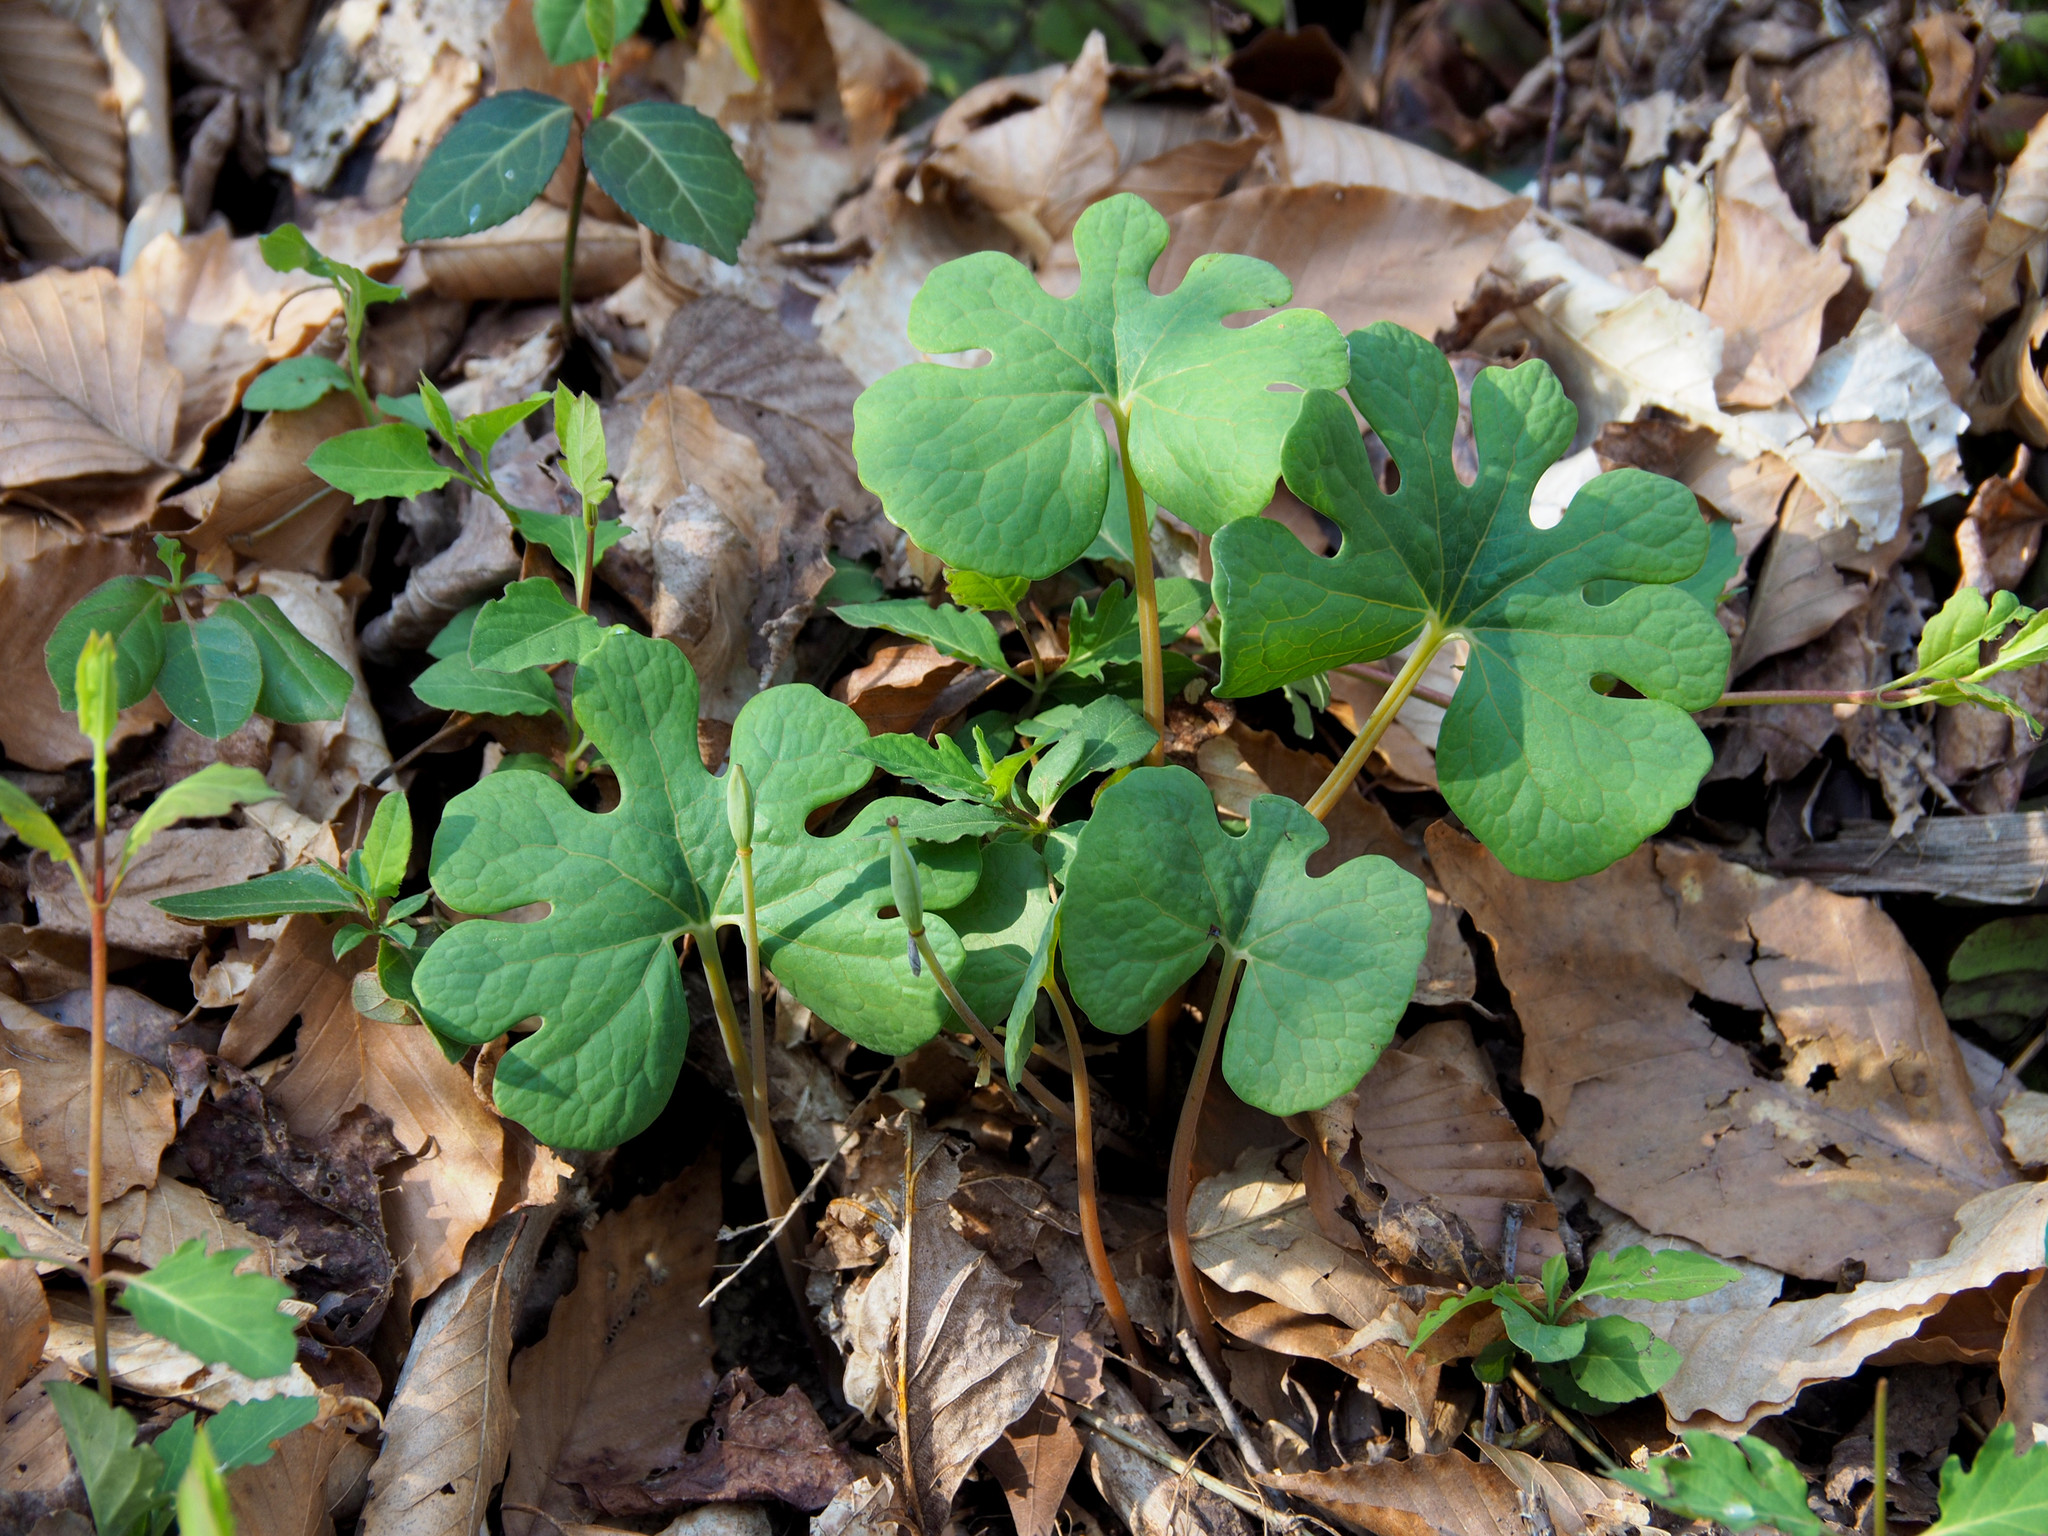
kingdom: Plantae
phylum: Tracheophyta
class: Magnoliopsida
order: Ranunculales
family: Papaveraceae
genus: Sanguinaria
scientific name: Sanguinaria canadensis
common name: Bloodroot
